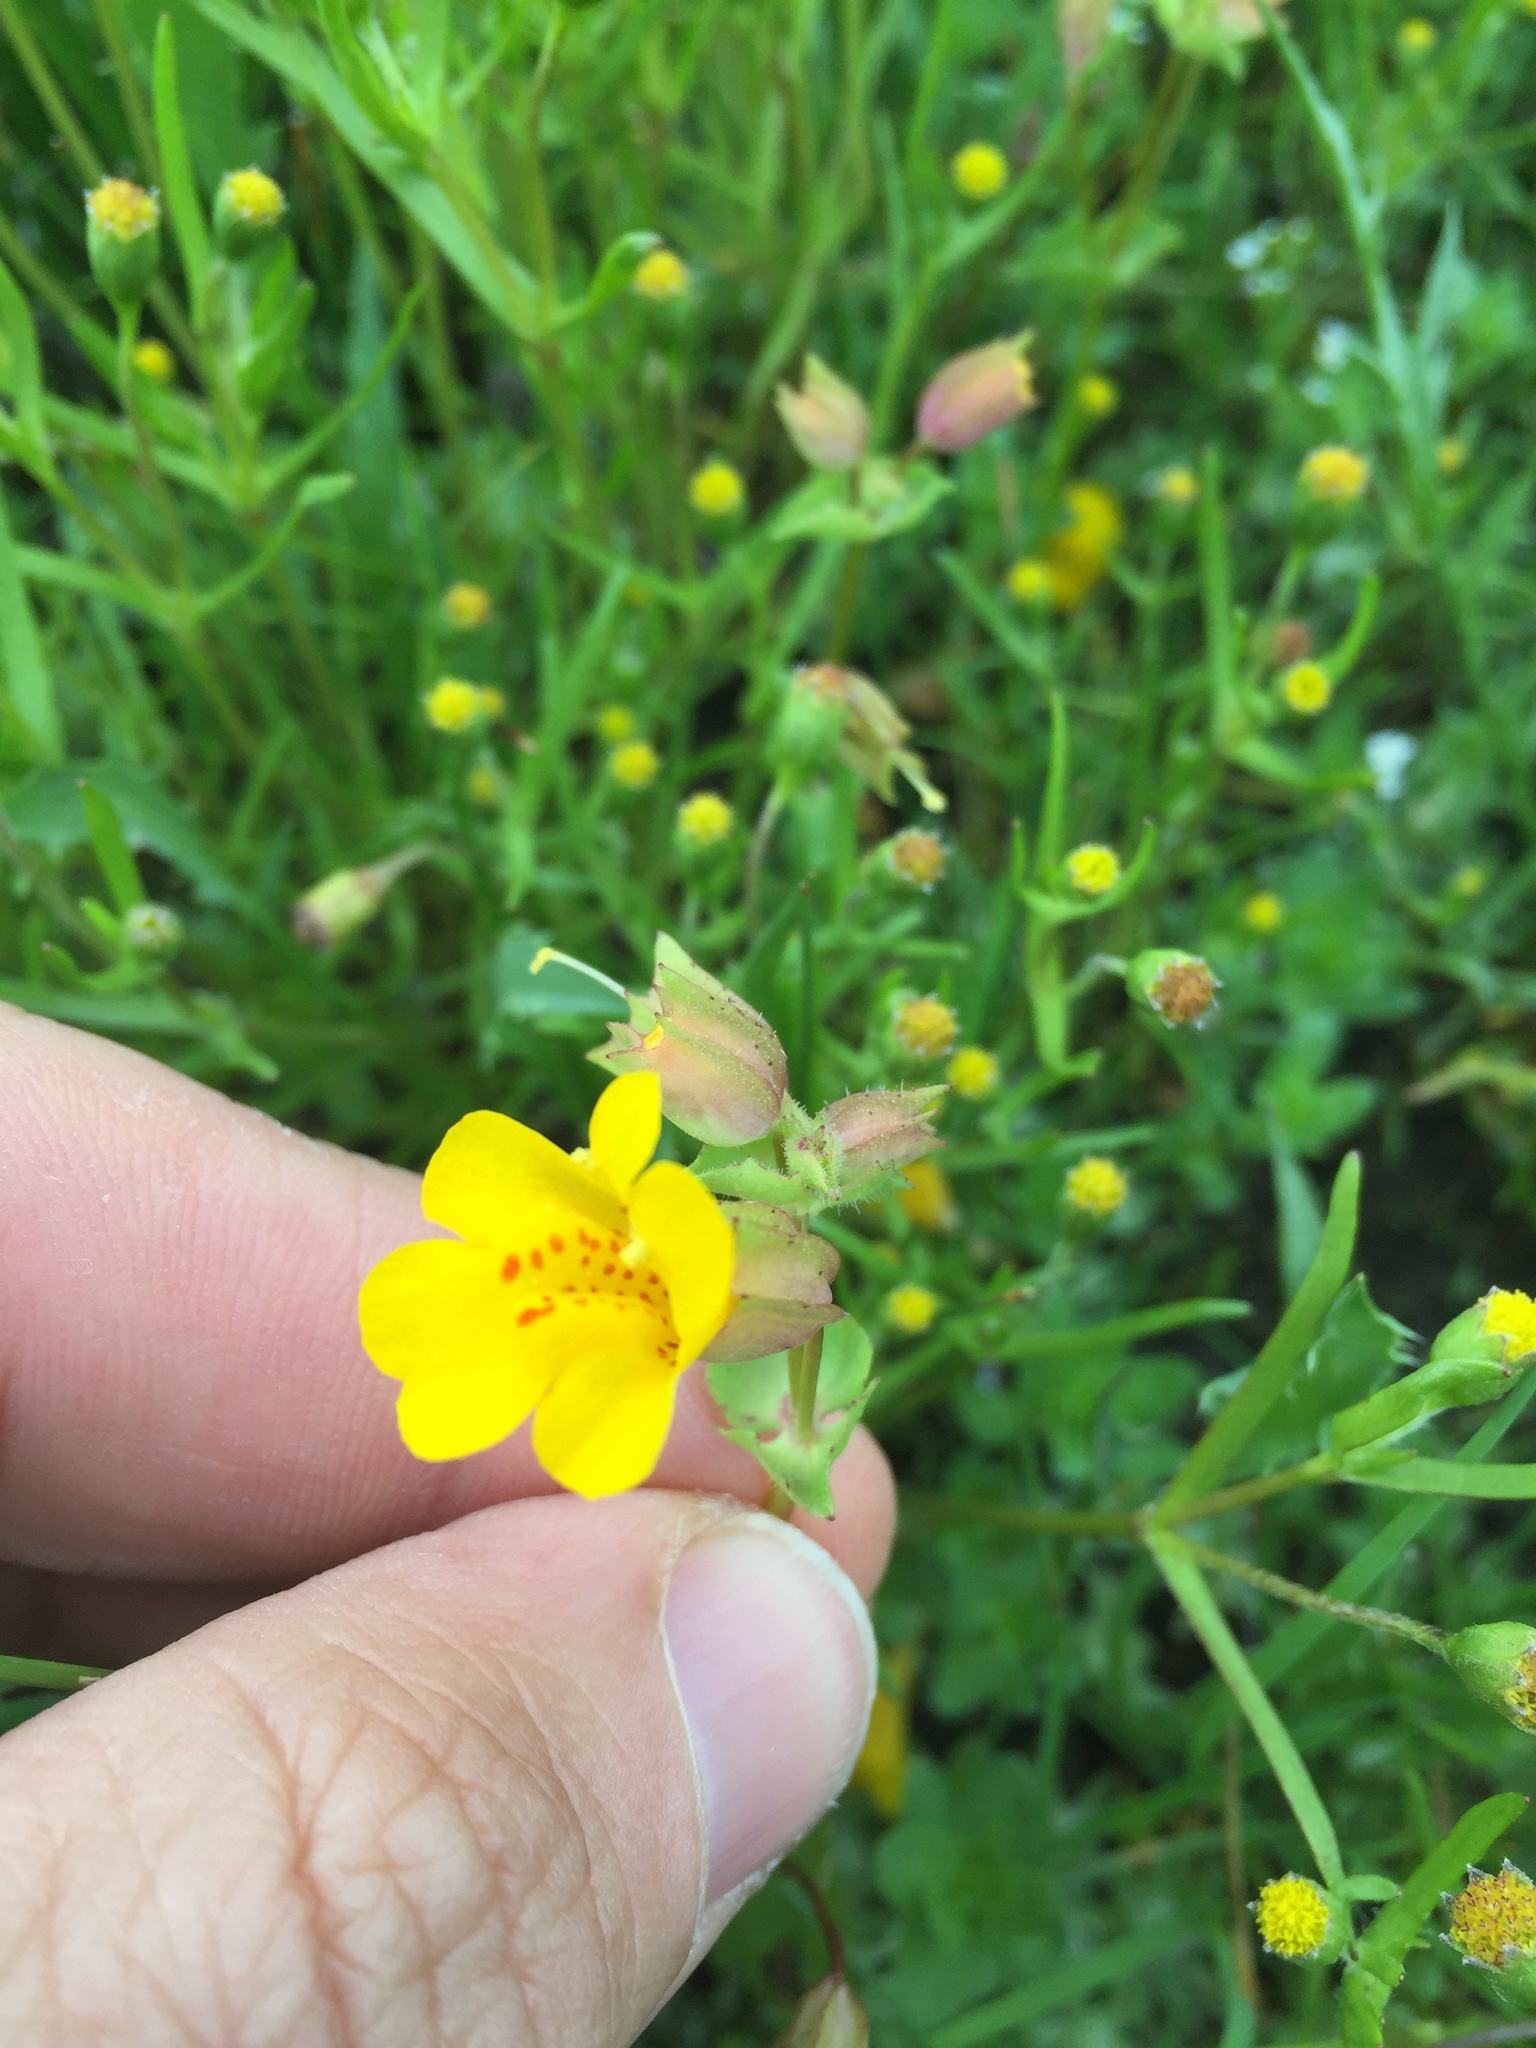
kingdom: Plantae
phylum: Tracheophyta
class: Magnoliopsida
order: Lamiales
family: Phrymaceae
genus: Erythranthe
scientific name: Erythranthe guttata
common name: Monkeyflower
